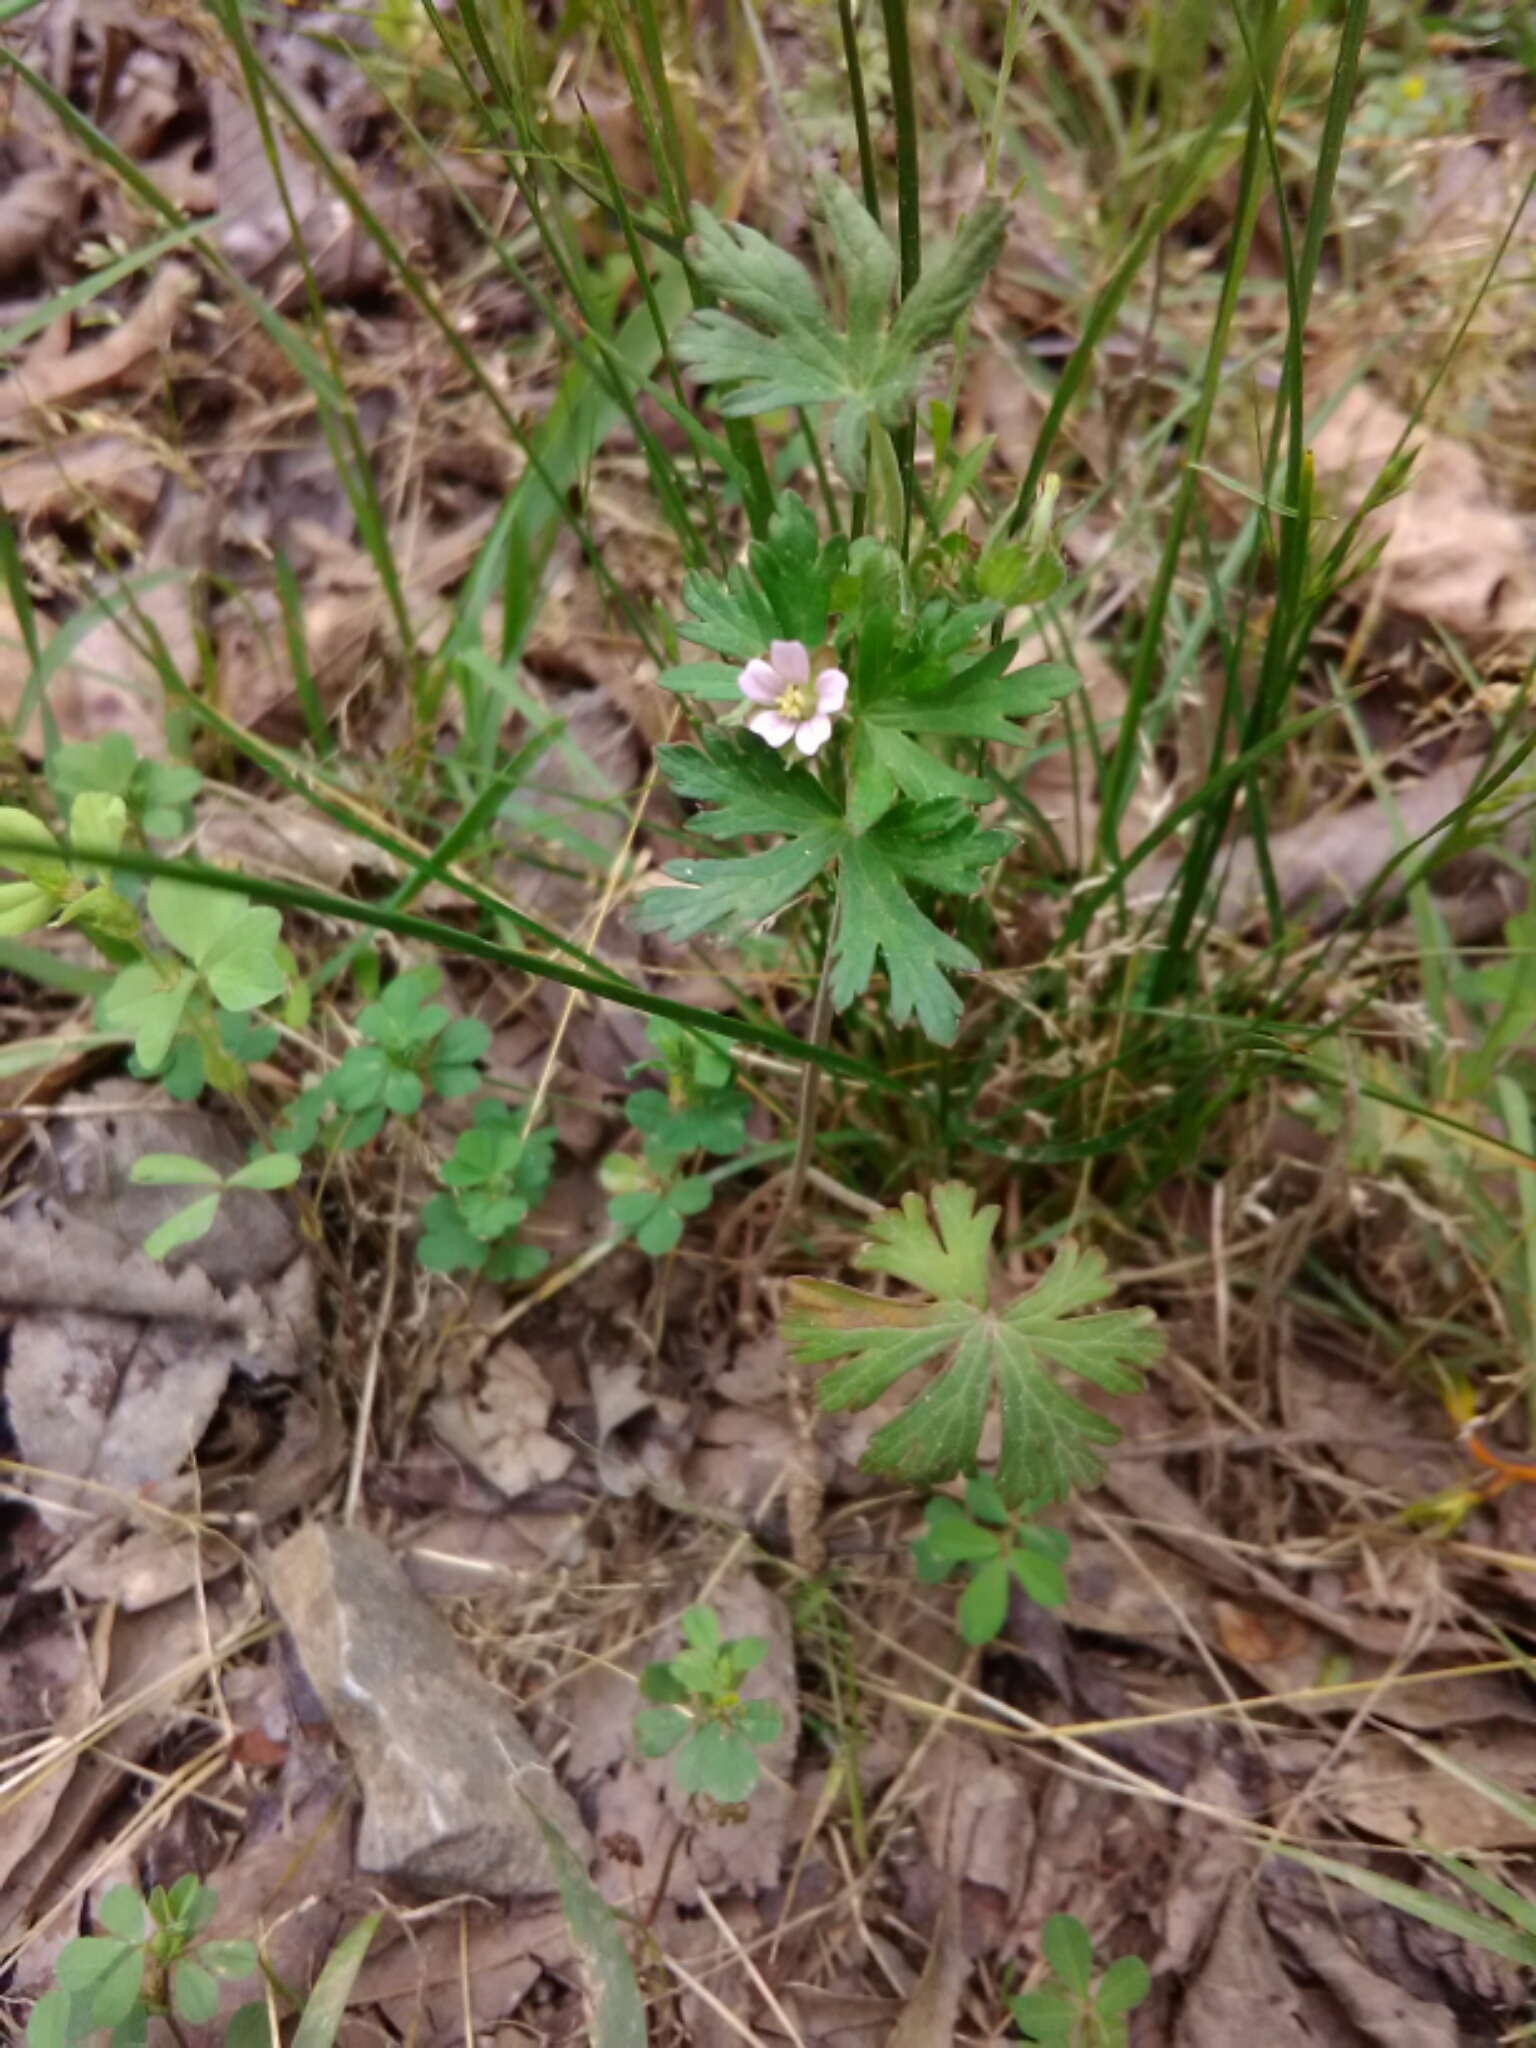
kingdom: Plantae
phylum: Tracheophyta
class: Magnoliopsida
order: Geraniales
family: Geraniaceae
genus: Geranium
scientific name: Geranium carolinianum
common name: Carolina crane's-bill
